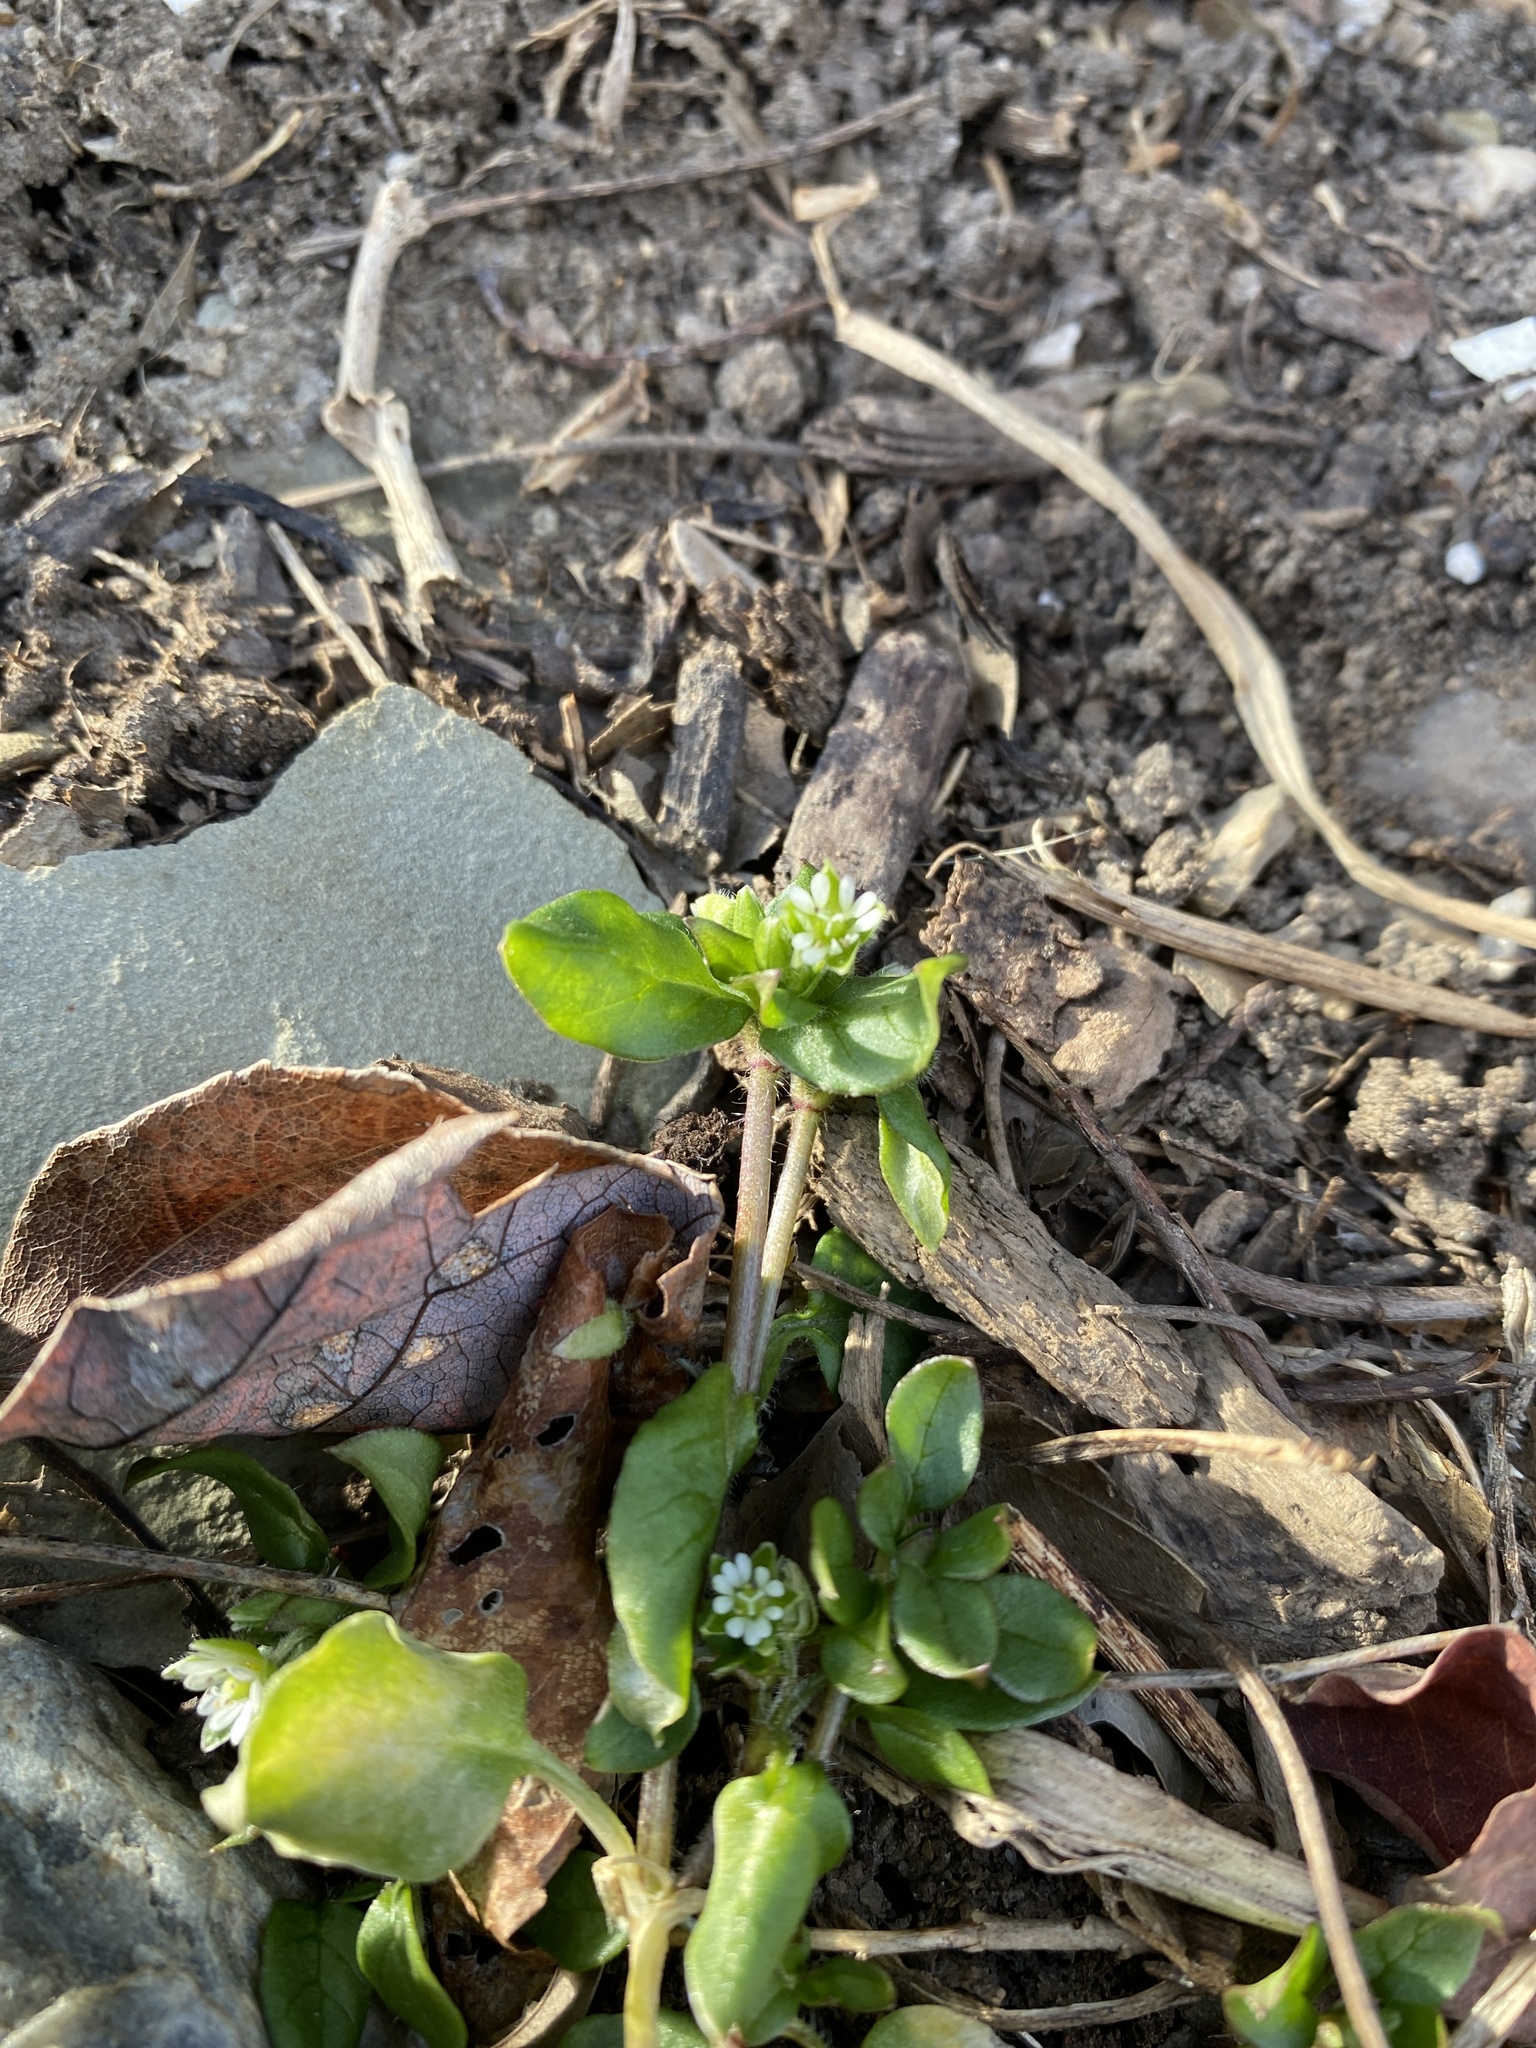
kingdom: Plantae
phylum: Tracheophyta
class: Magnoliopsida
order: Caryophyllales
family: Caryophyllaceae
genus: Stellaria
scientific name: Stellaria media
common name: Common chickweed
